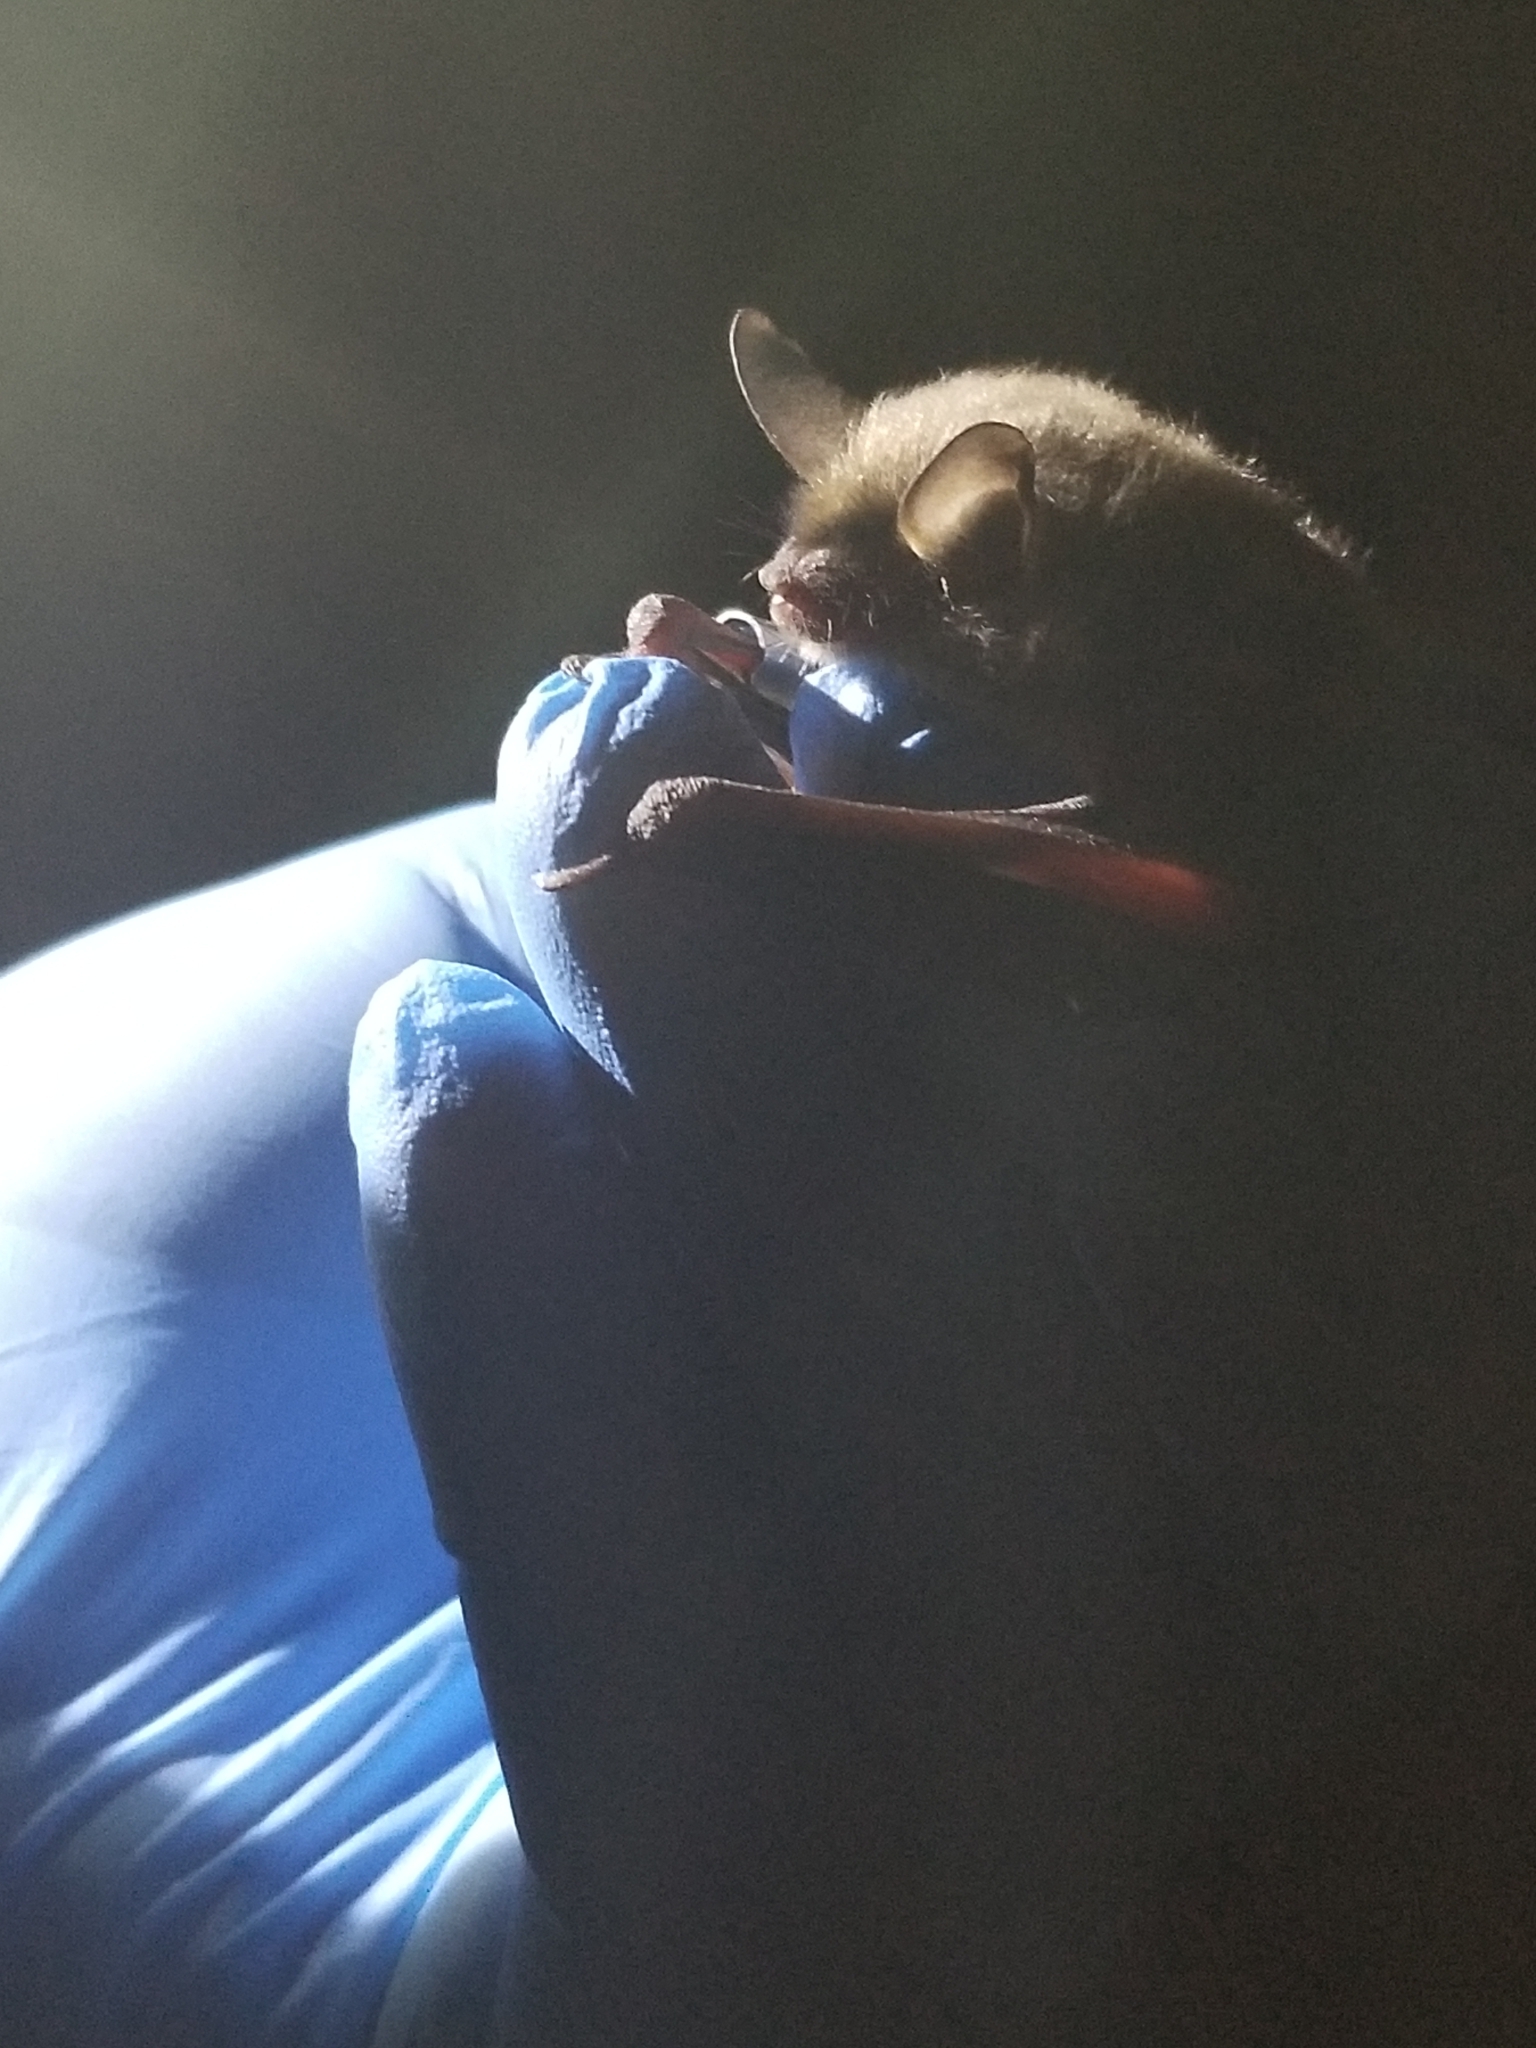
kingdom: Animalia
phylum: Chordata
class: Mammalia
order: Chiroptera
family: Vespertilionidae
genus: Myotis
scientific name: Myotis septentrionalis
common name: Northern myotis
